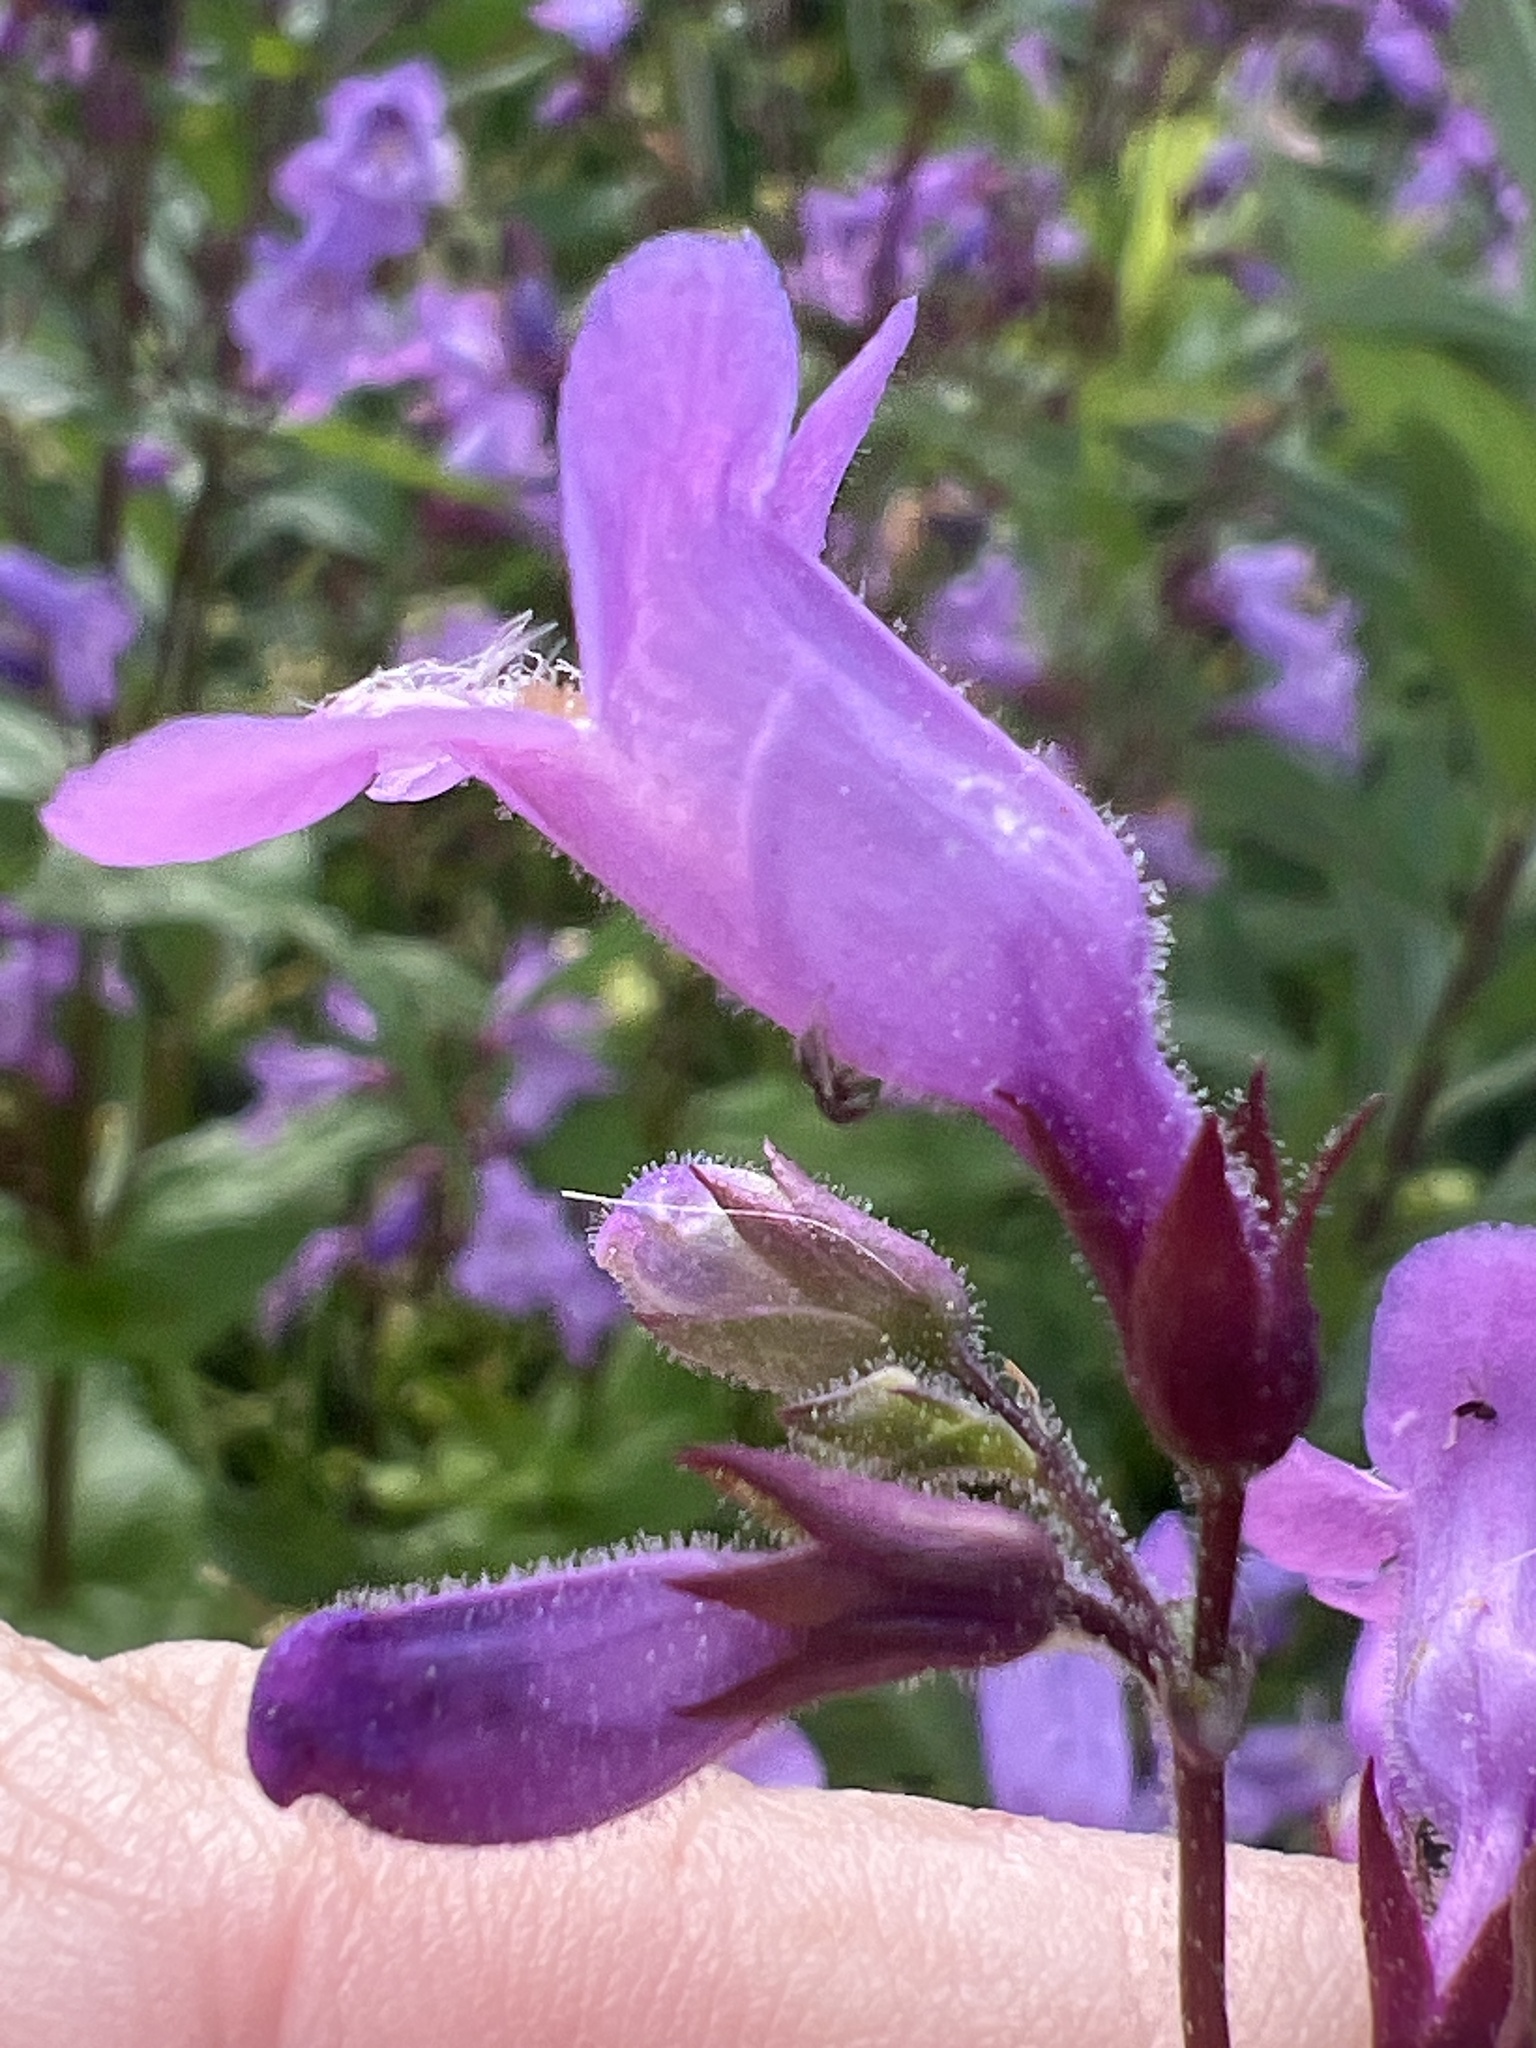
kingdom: Plantae
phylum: Tracheophyta
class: Magnoliopsida
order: Lamiales
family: Plantaginaceae
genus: Penstemon
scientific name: Penstemon tenuis
